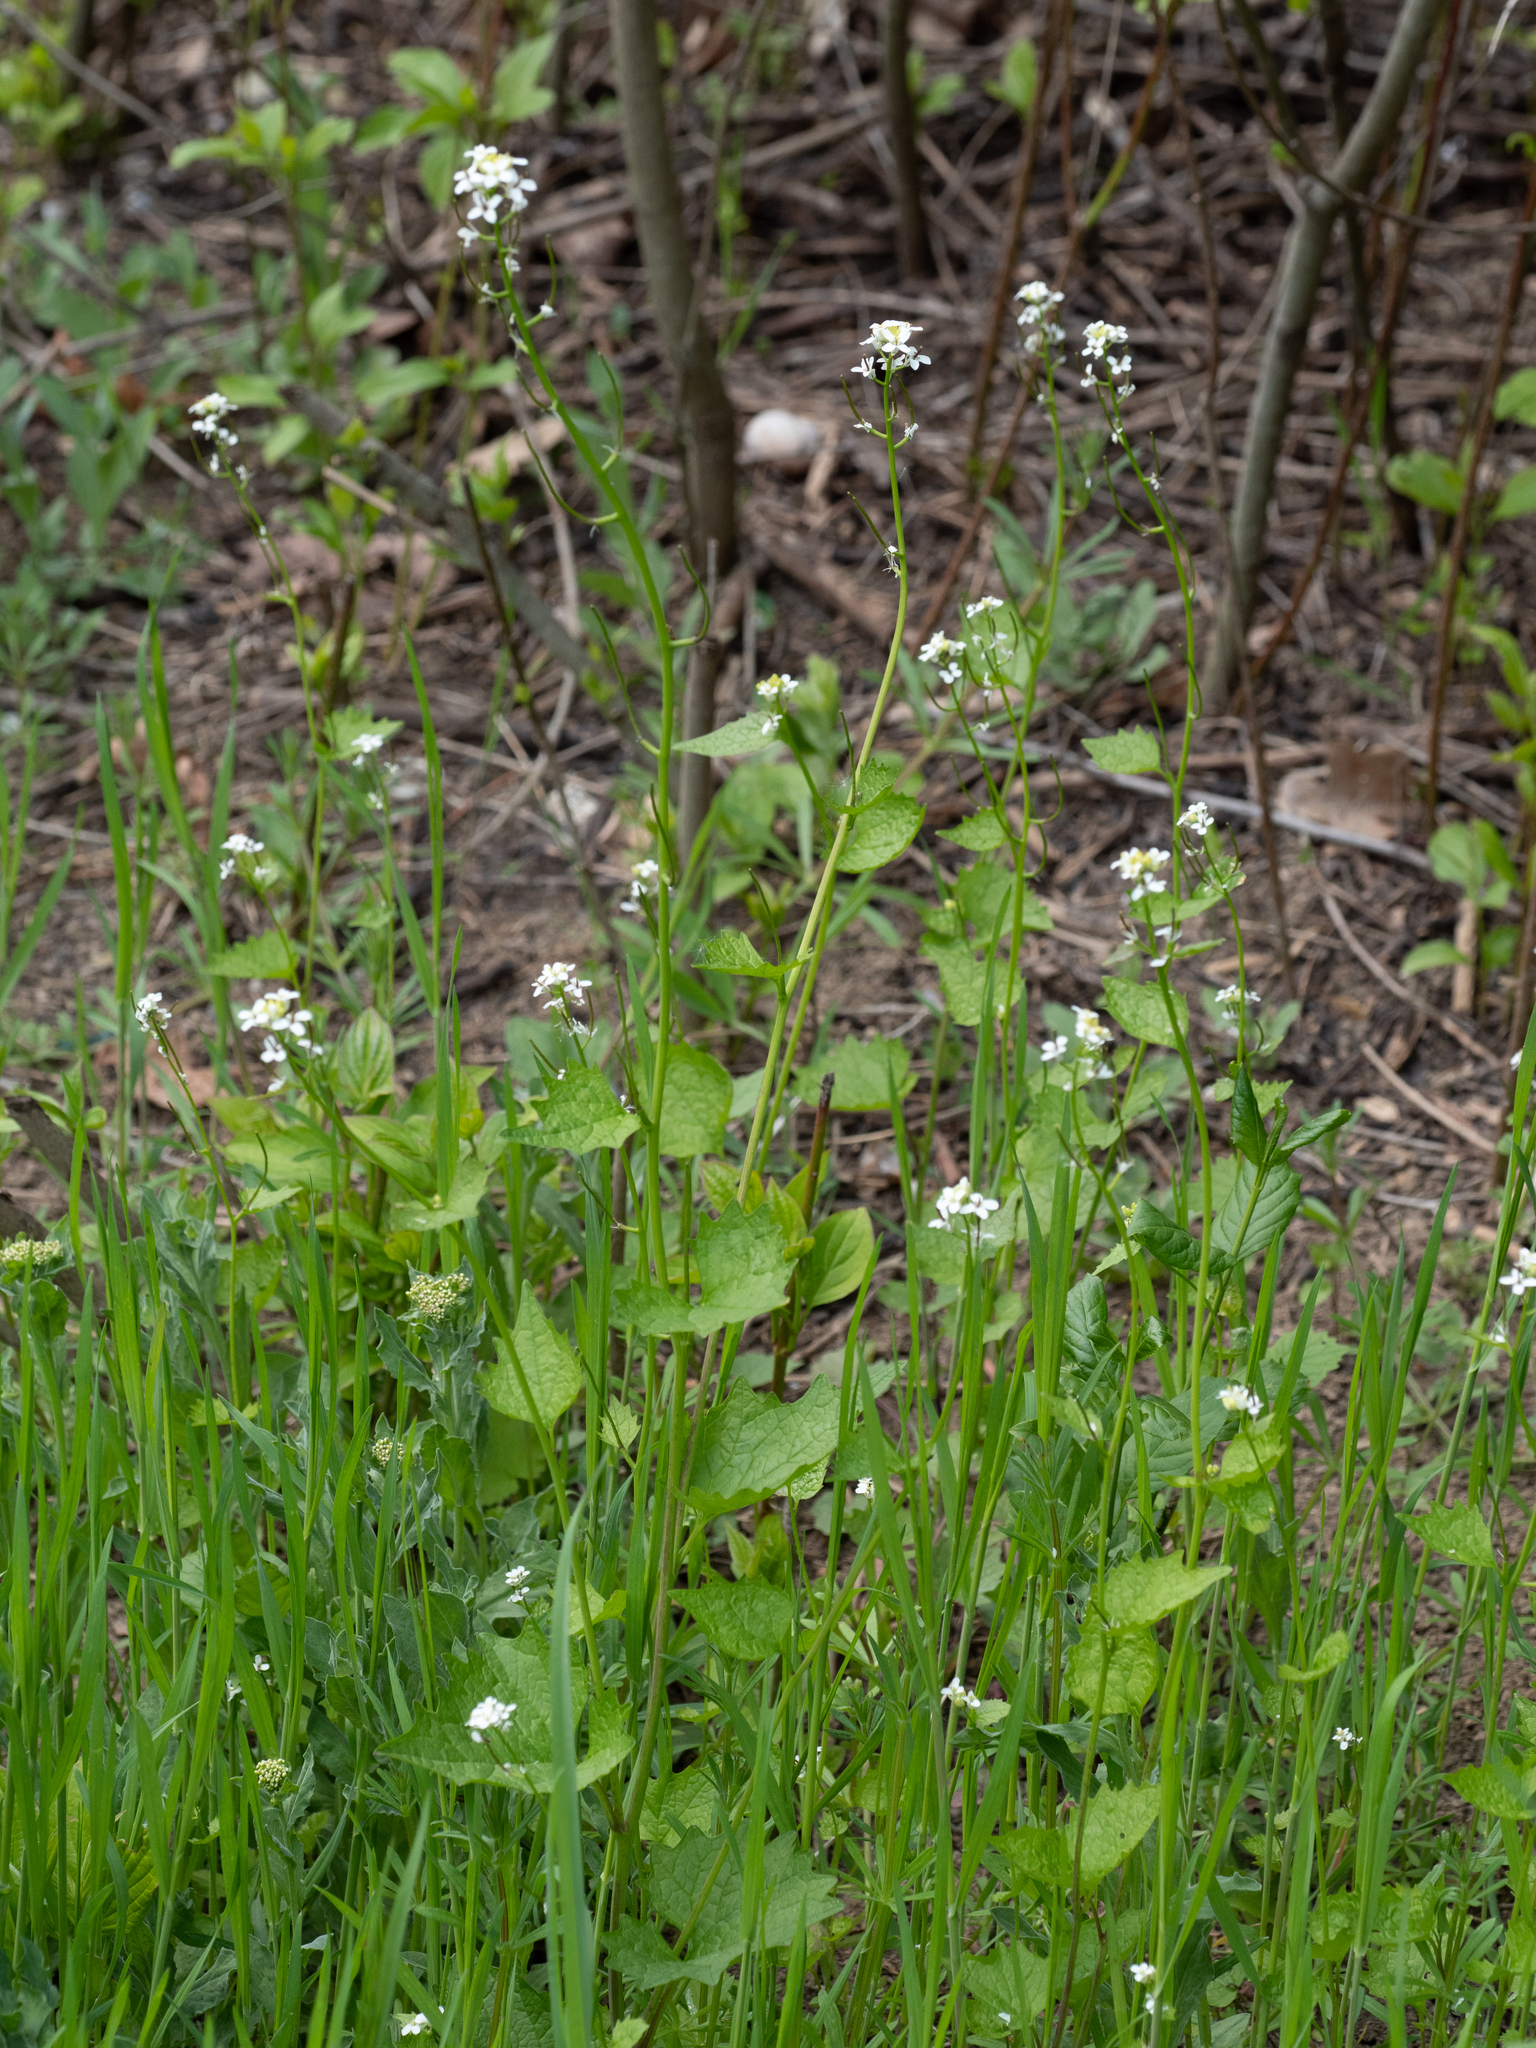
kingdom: Plantae
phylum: Tracheophyta
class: Magnoliopsida
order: Brassicales
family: Brassicaceae
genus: Alliaria
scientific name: Alliaria petiolata
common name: Garlic mustard
